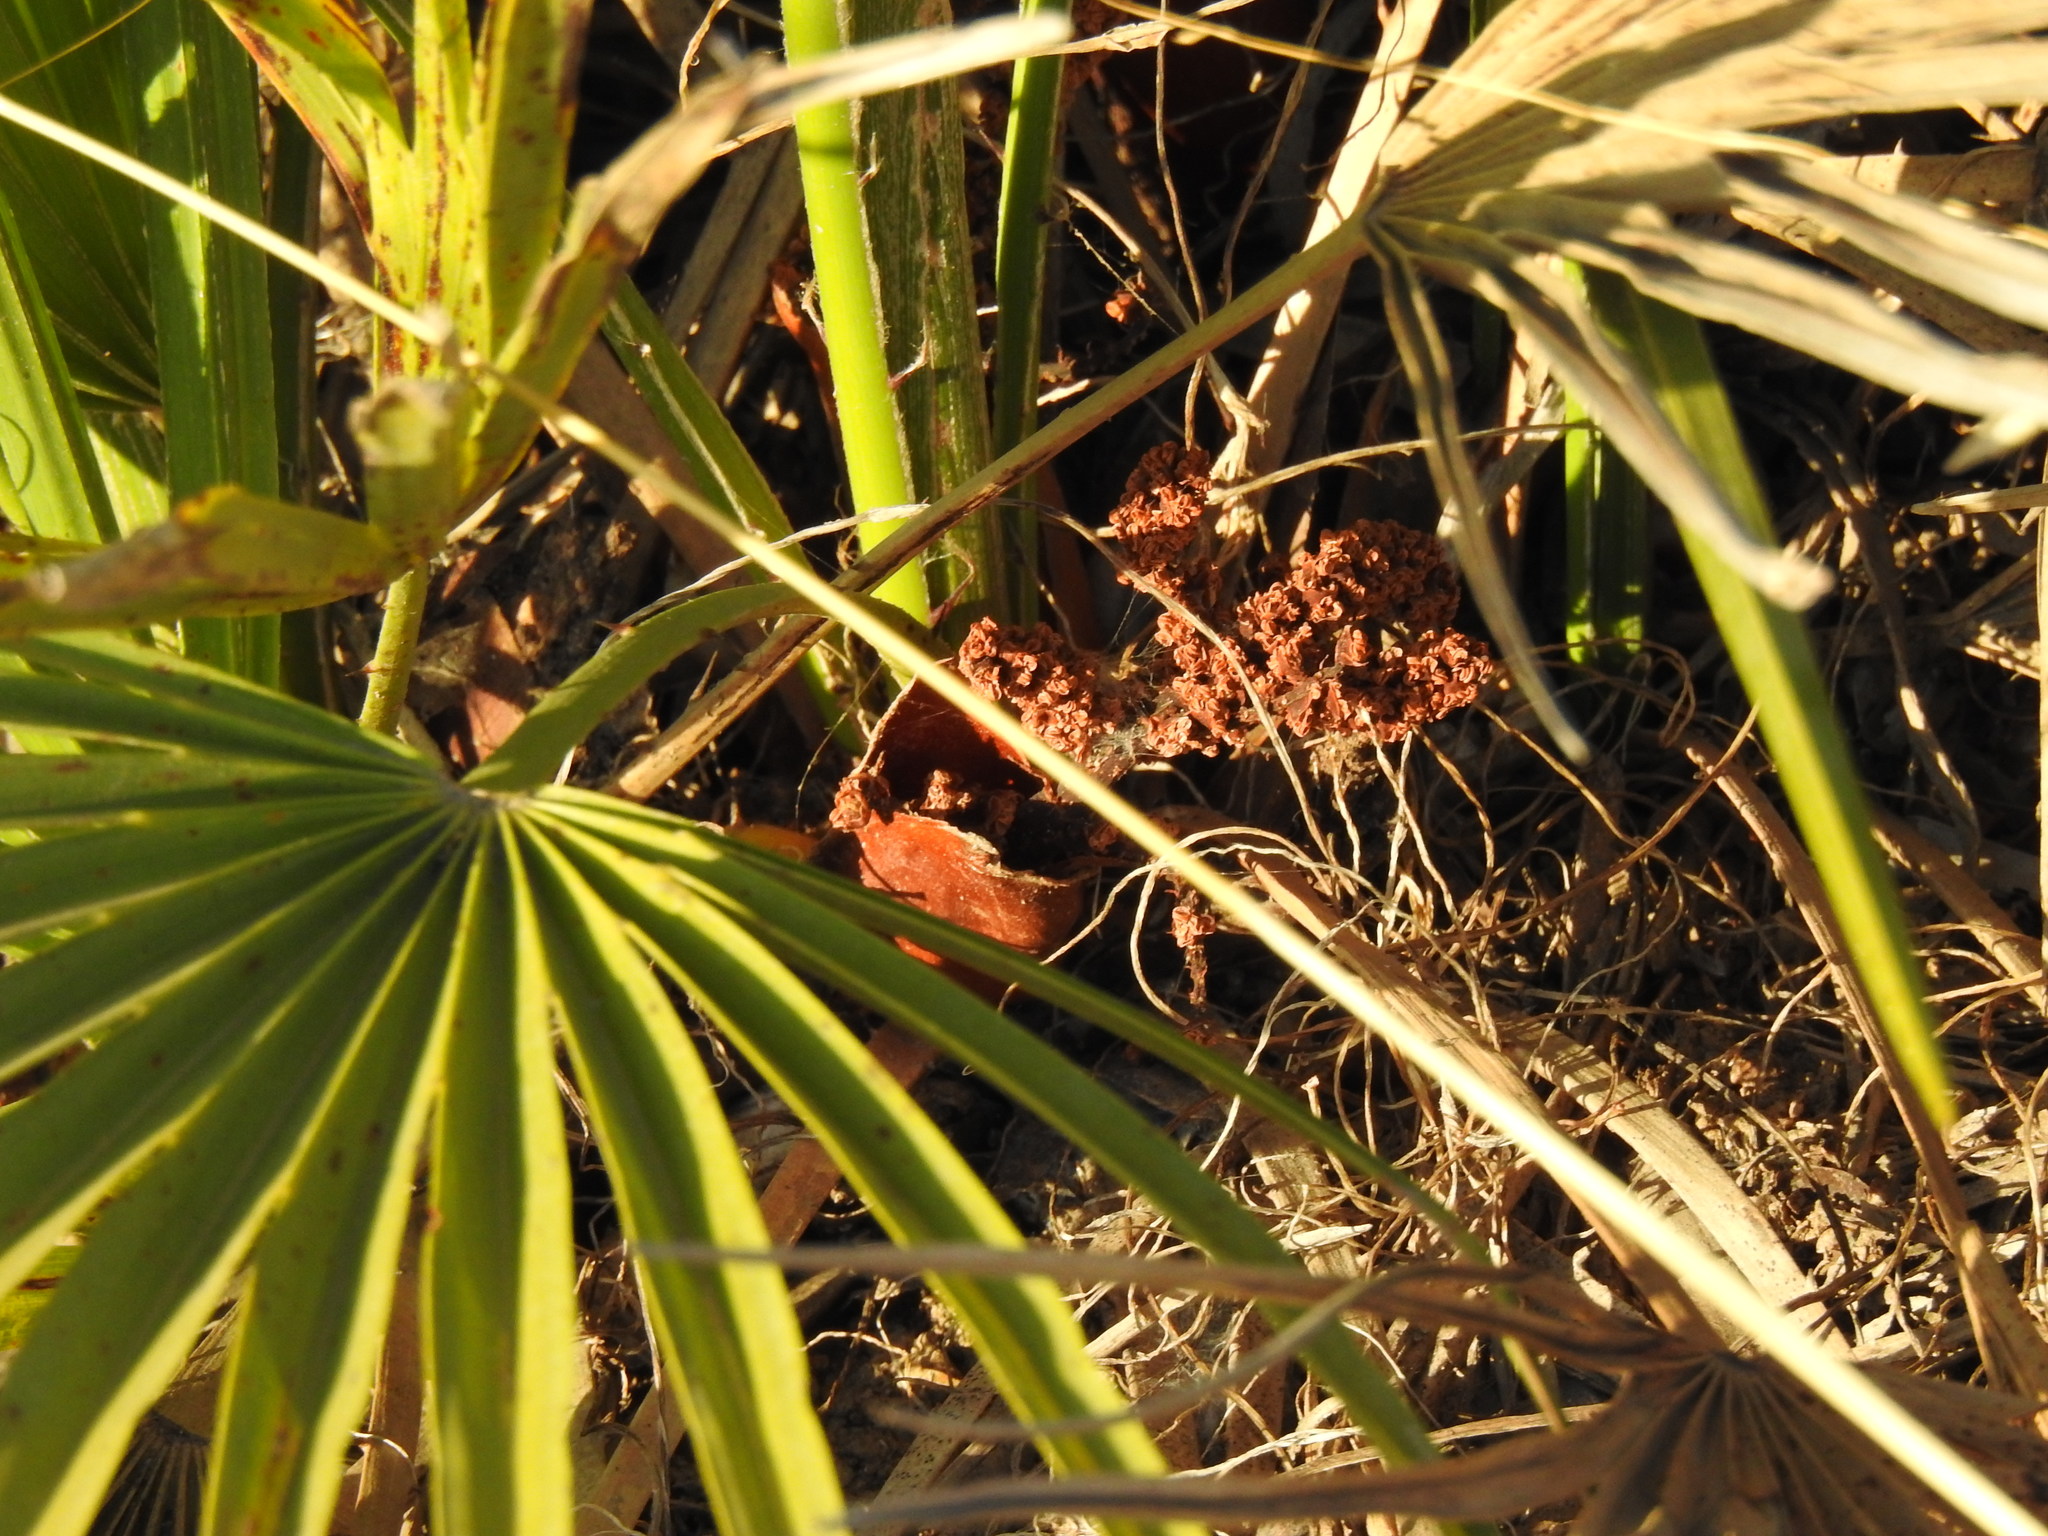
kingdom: Plantae
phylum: Tracheophyta
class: Liliopsida
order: Arecales
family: Arecaceae
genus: Chamaerops
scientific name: Chamaerops humilis
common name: Dwarf fan palm
